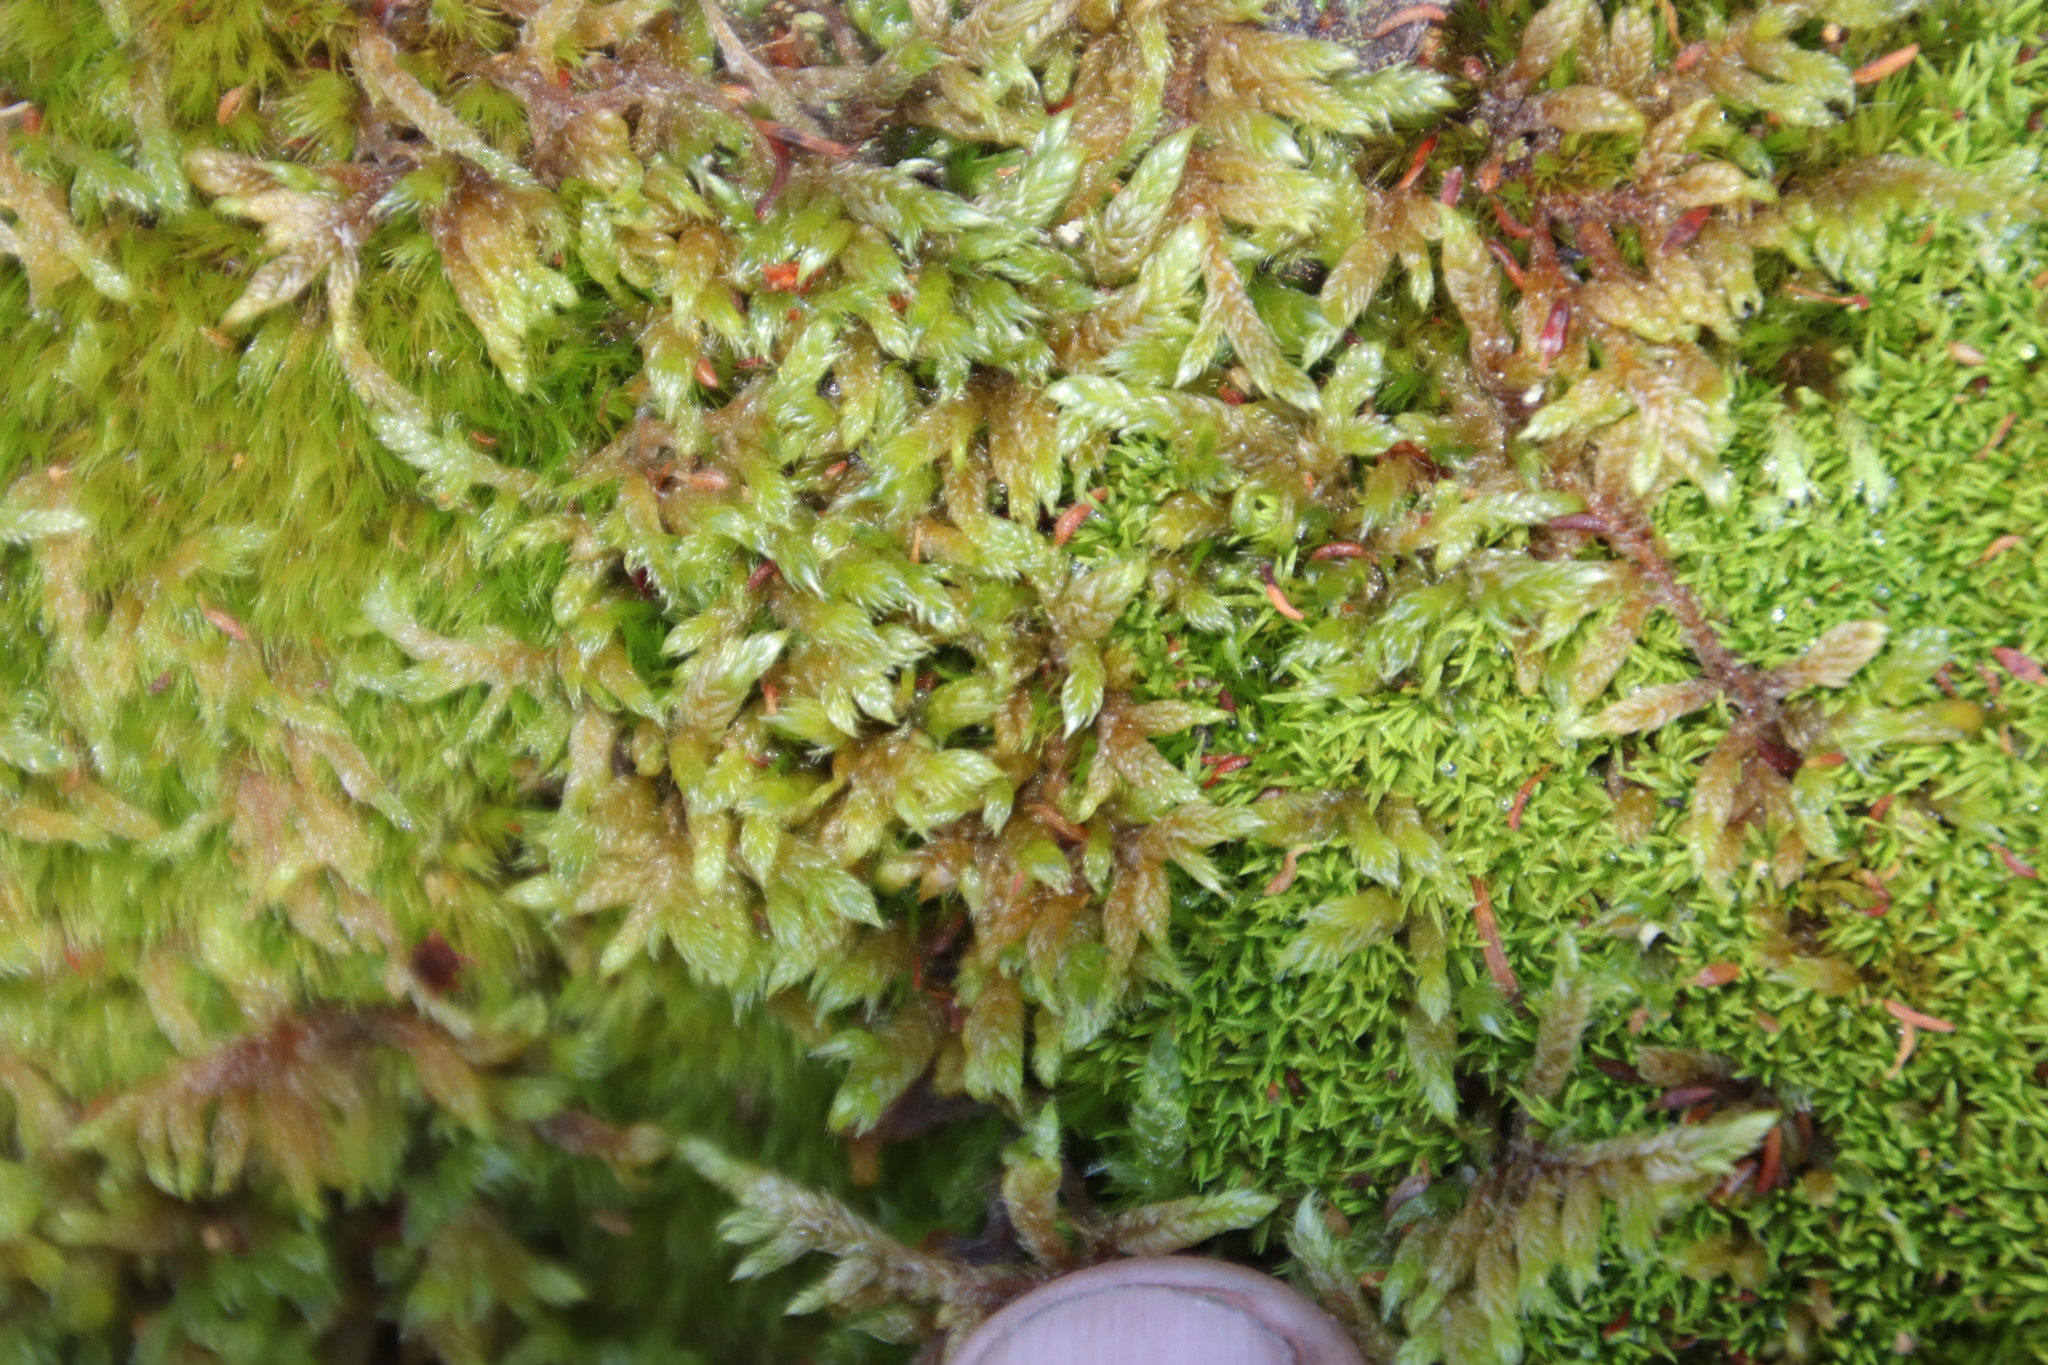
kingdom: Plantae
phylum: Bryophyta
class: Bryopsida
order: Hypnales
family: Hypnaceae
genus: Hypnum
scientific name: Hypnum cupressiforme
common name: Cypress-leaved plait-moss
